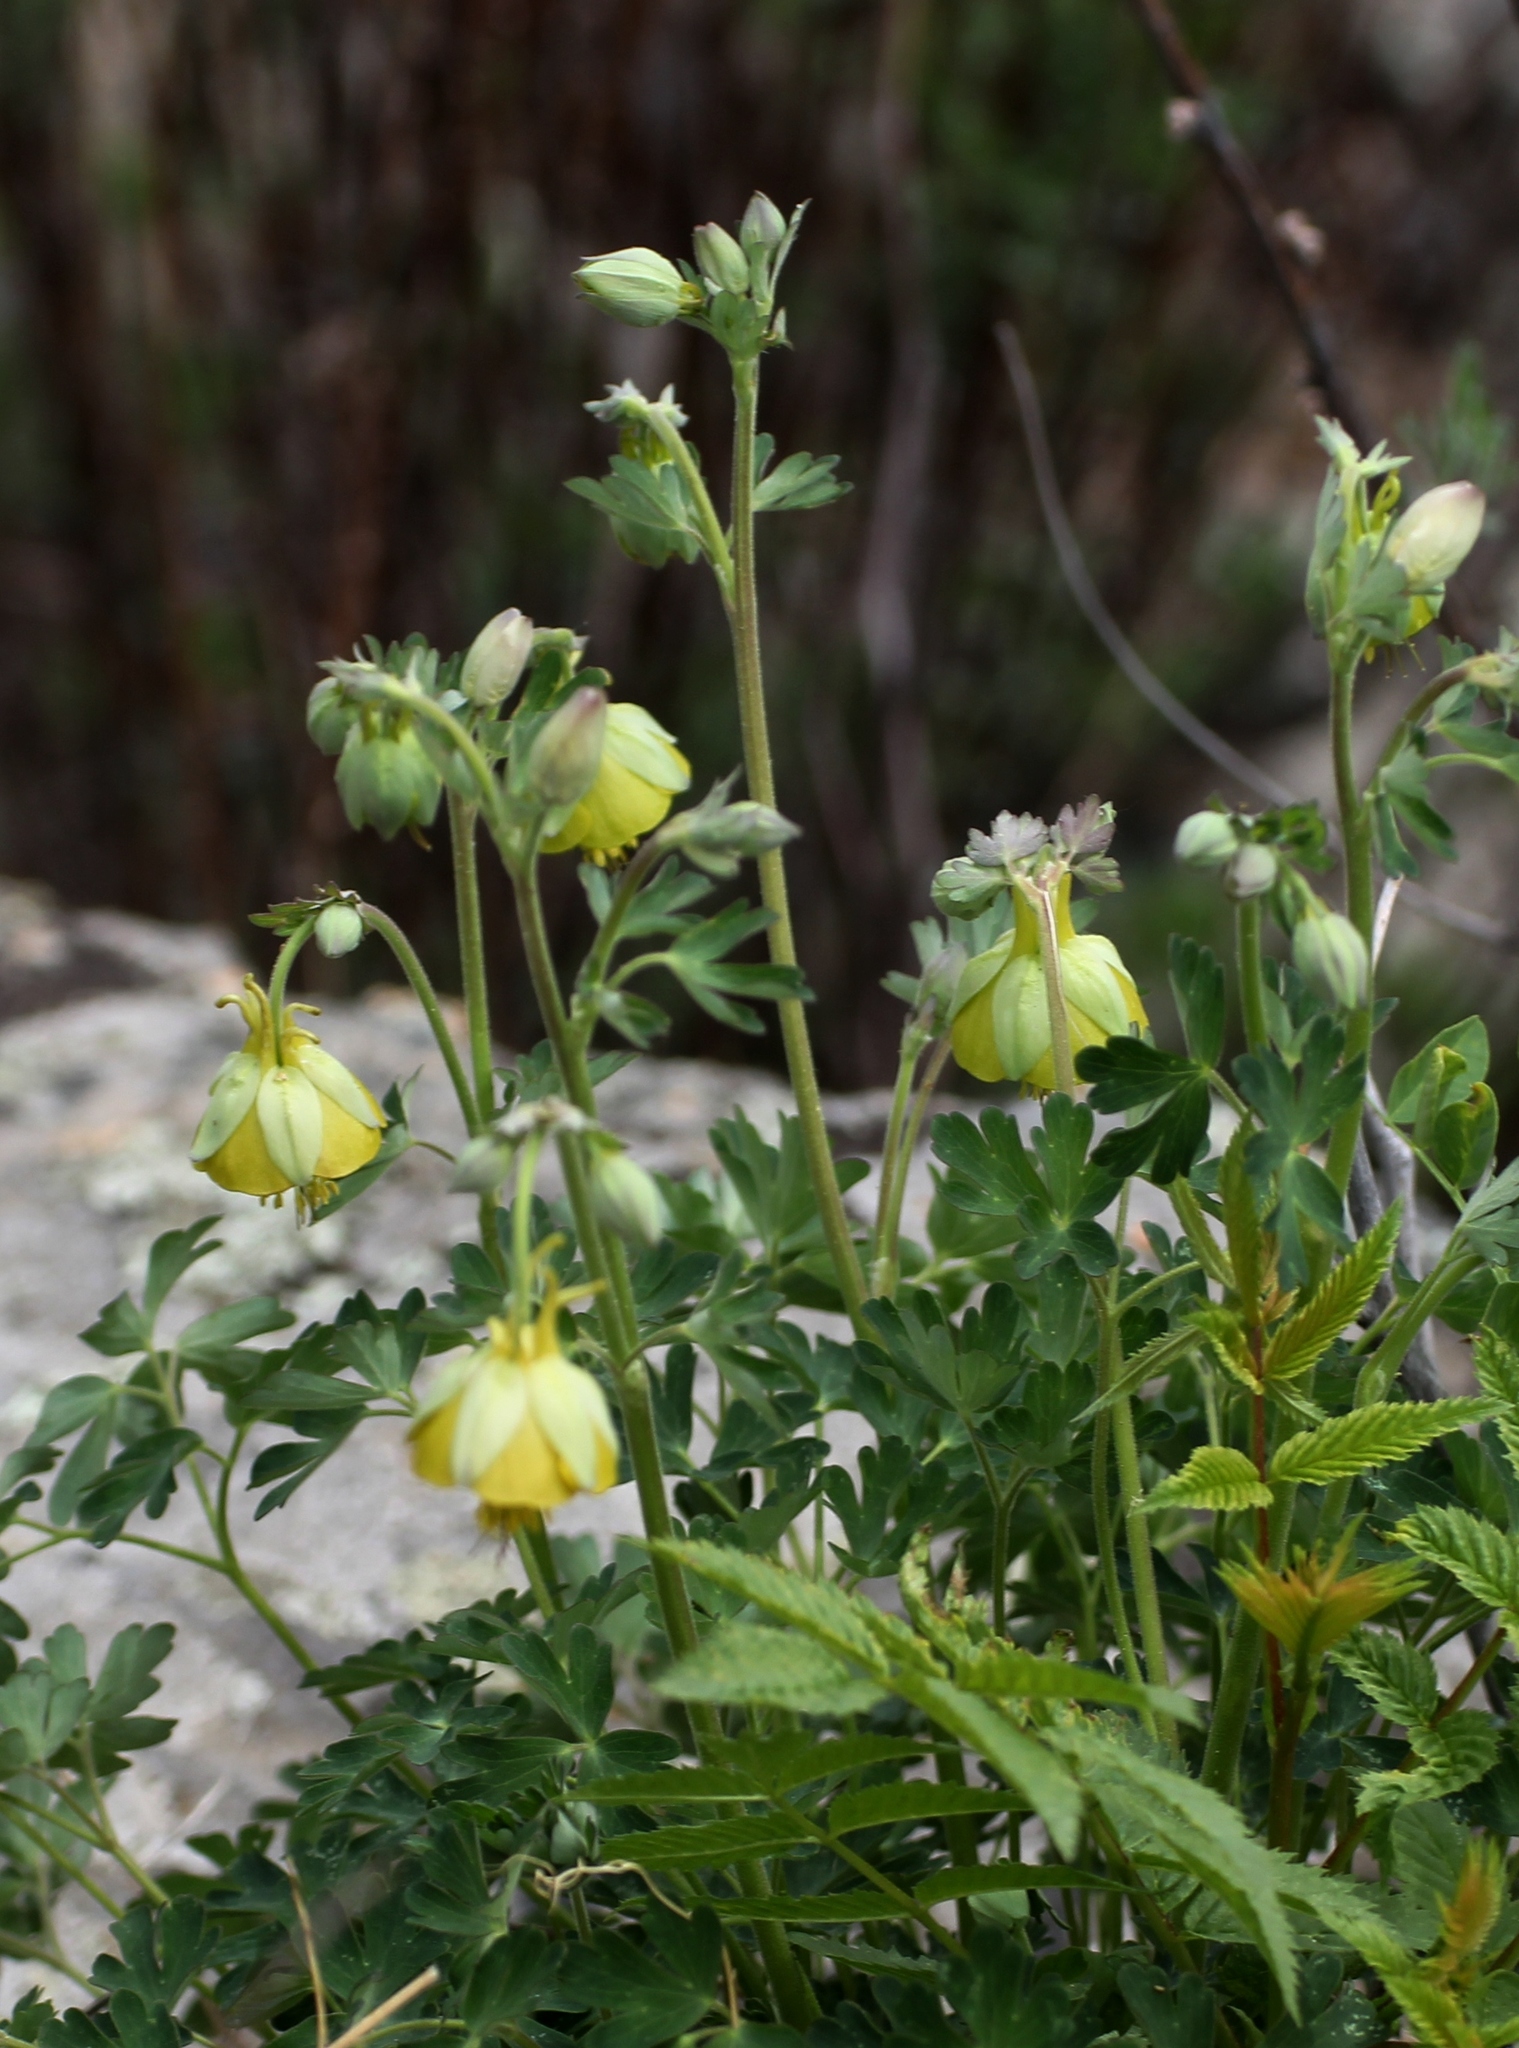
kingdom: Plantae
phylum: Tracheophyta
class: Magnoliopsida
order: Ranunculales
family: Ranunculaceae
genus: Aquilegia
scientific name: Aquilegia viridiflora
